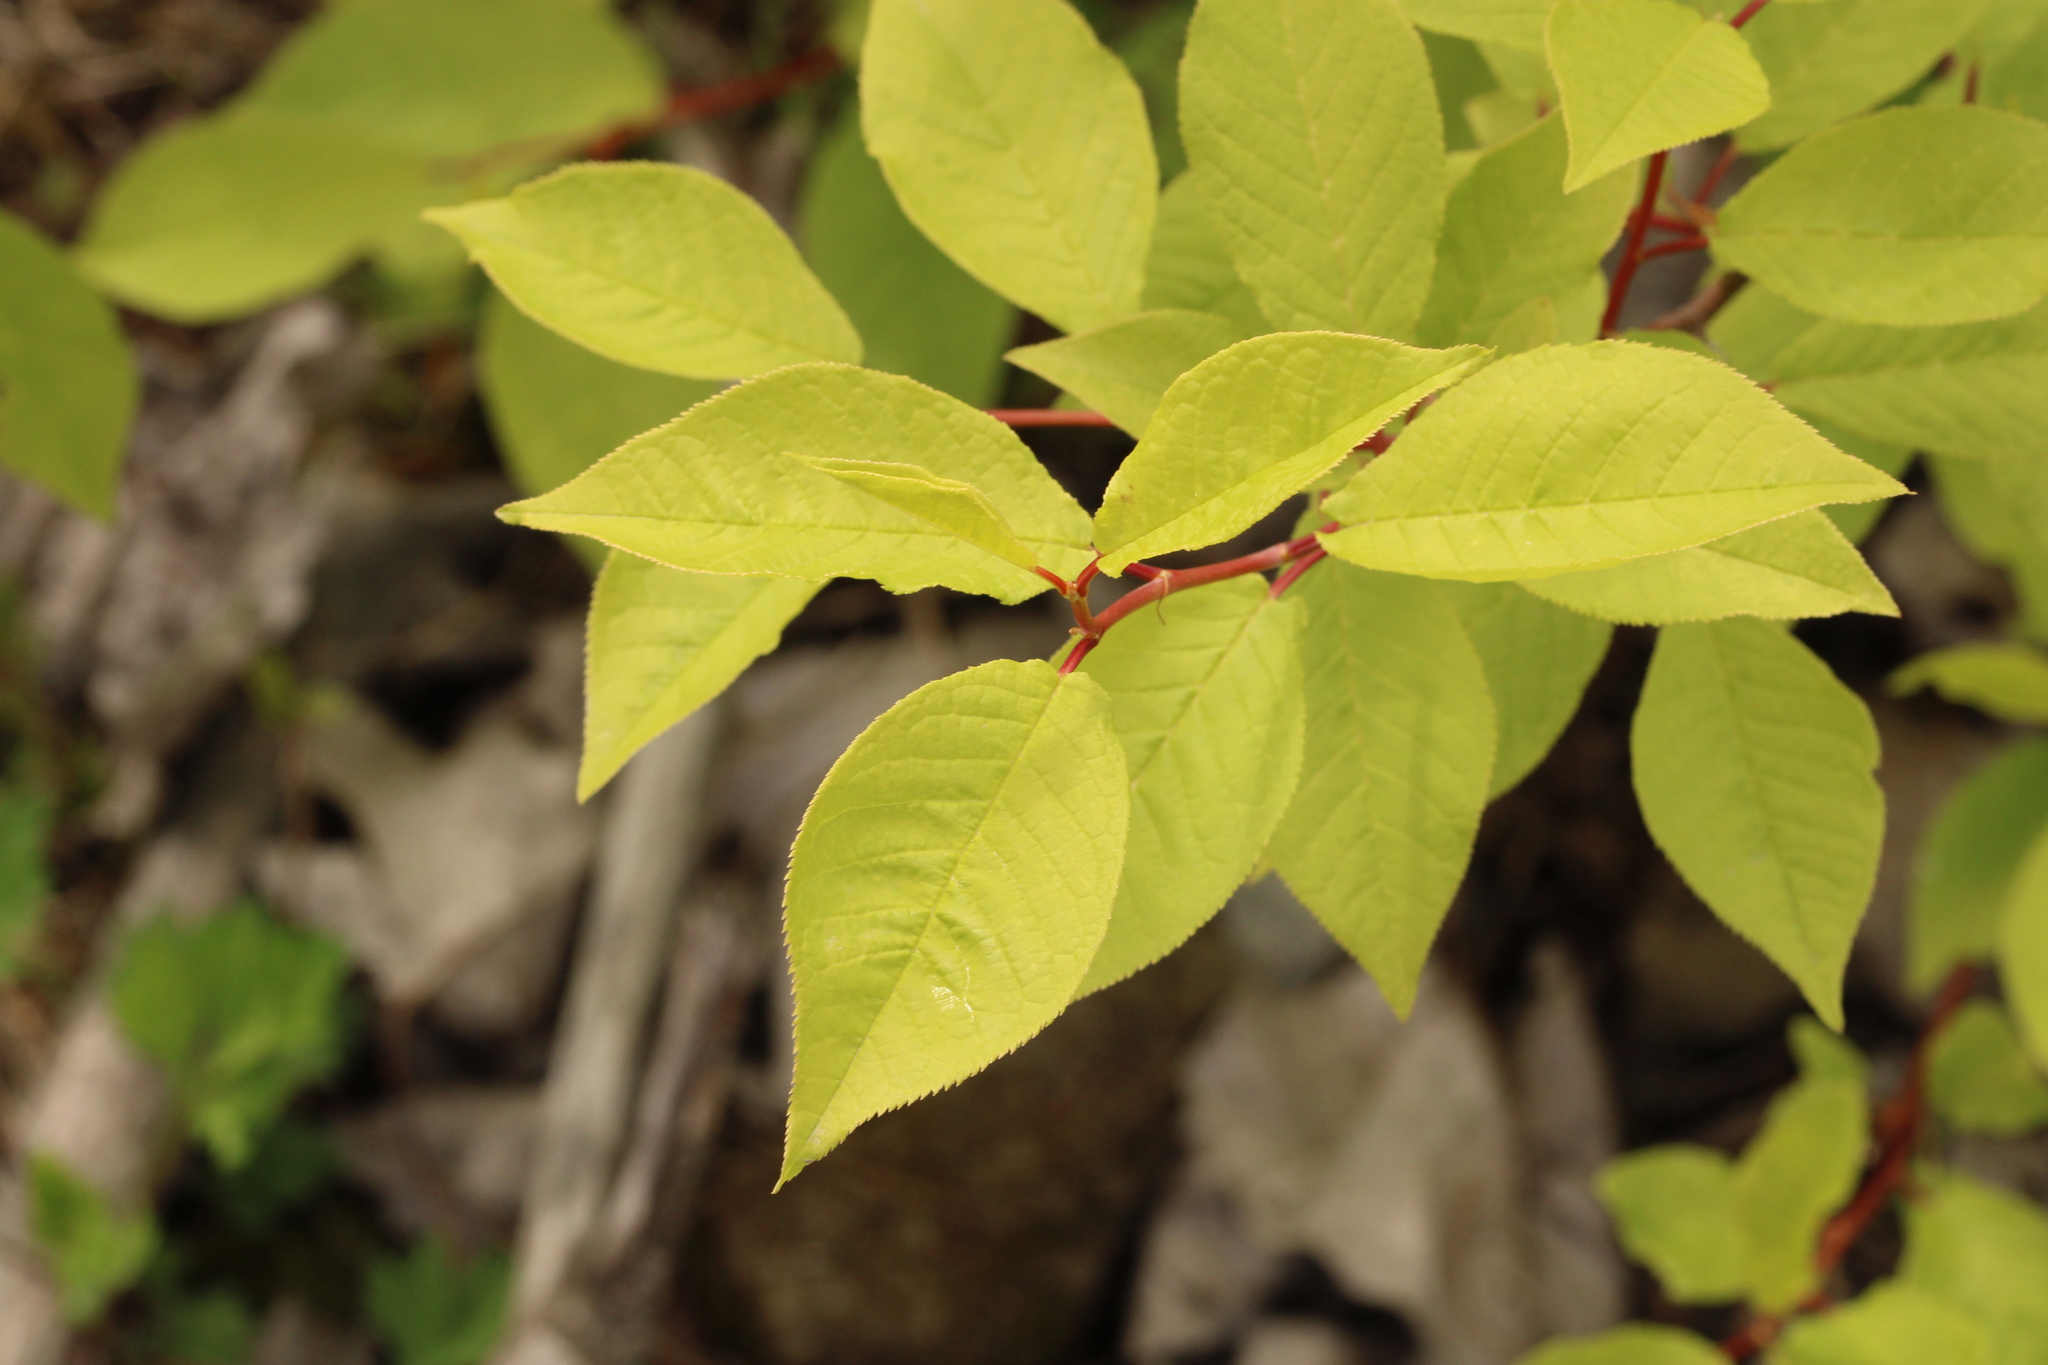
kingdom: Plantae
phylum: Tracheophyta
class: Magnoliopsida
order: Rosales
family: Rosaceae
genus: Prunus
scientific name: Prunus padus
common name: Bird cherry
